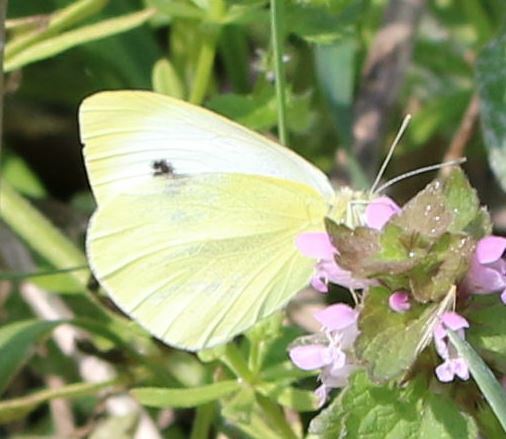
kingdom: Animalia
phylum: Arthropoda
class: Insecta
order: Lepidoptera
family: Pieridae
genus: Pieris
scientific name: Pieris rapae
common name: Small white
